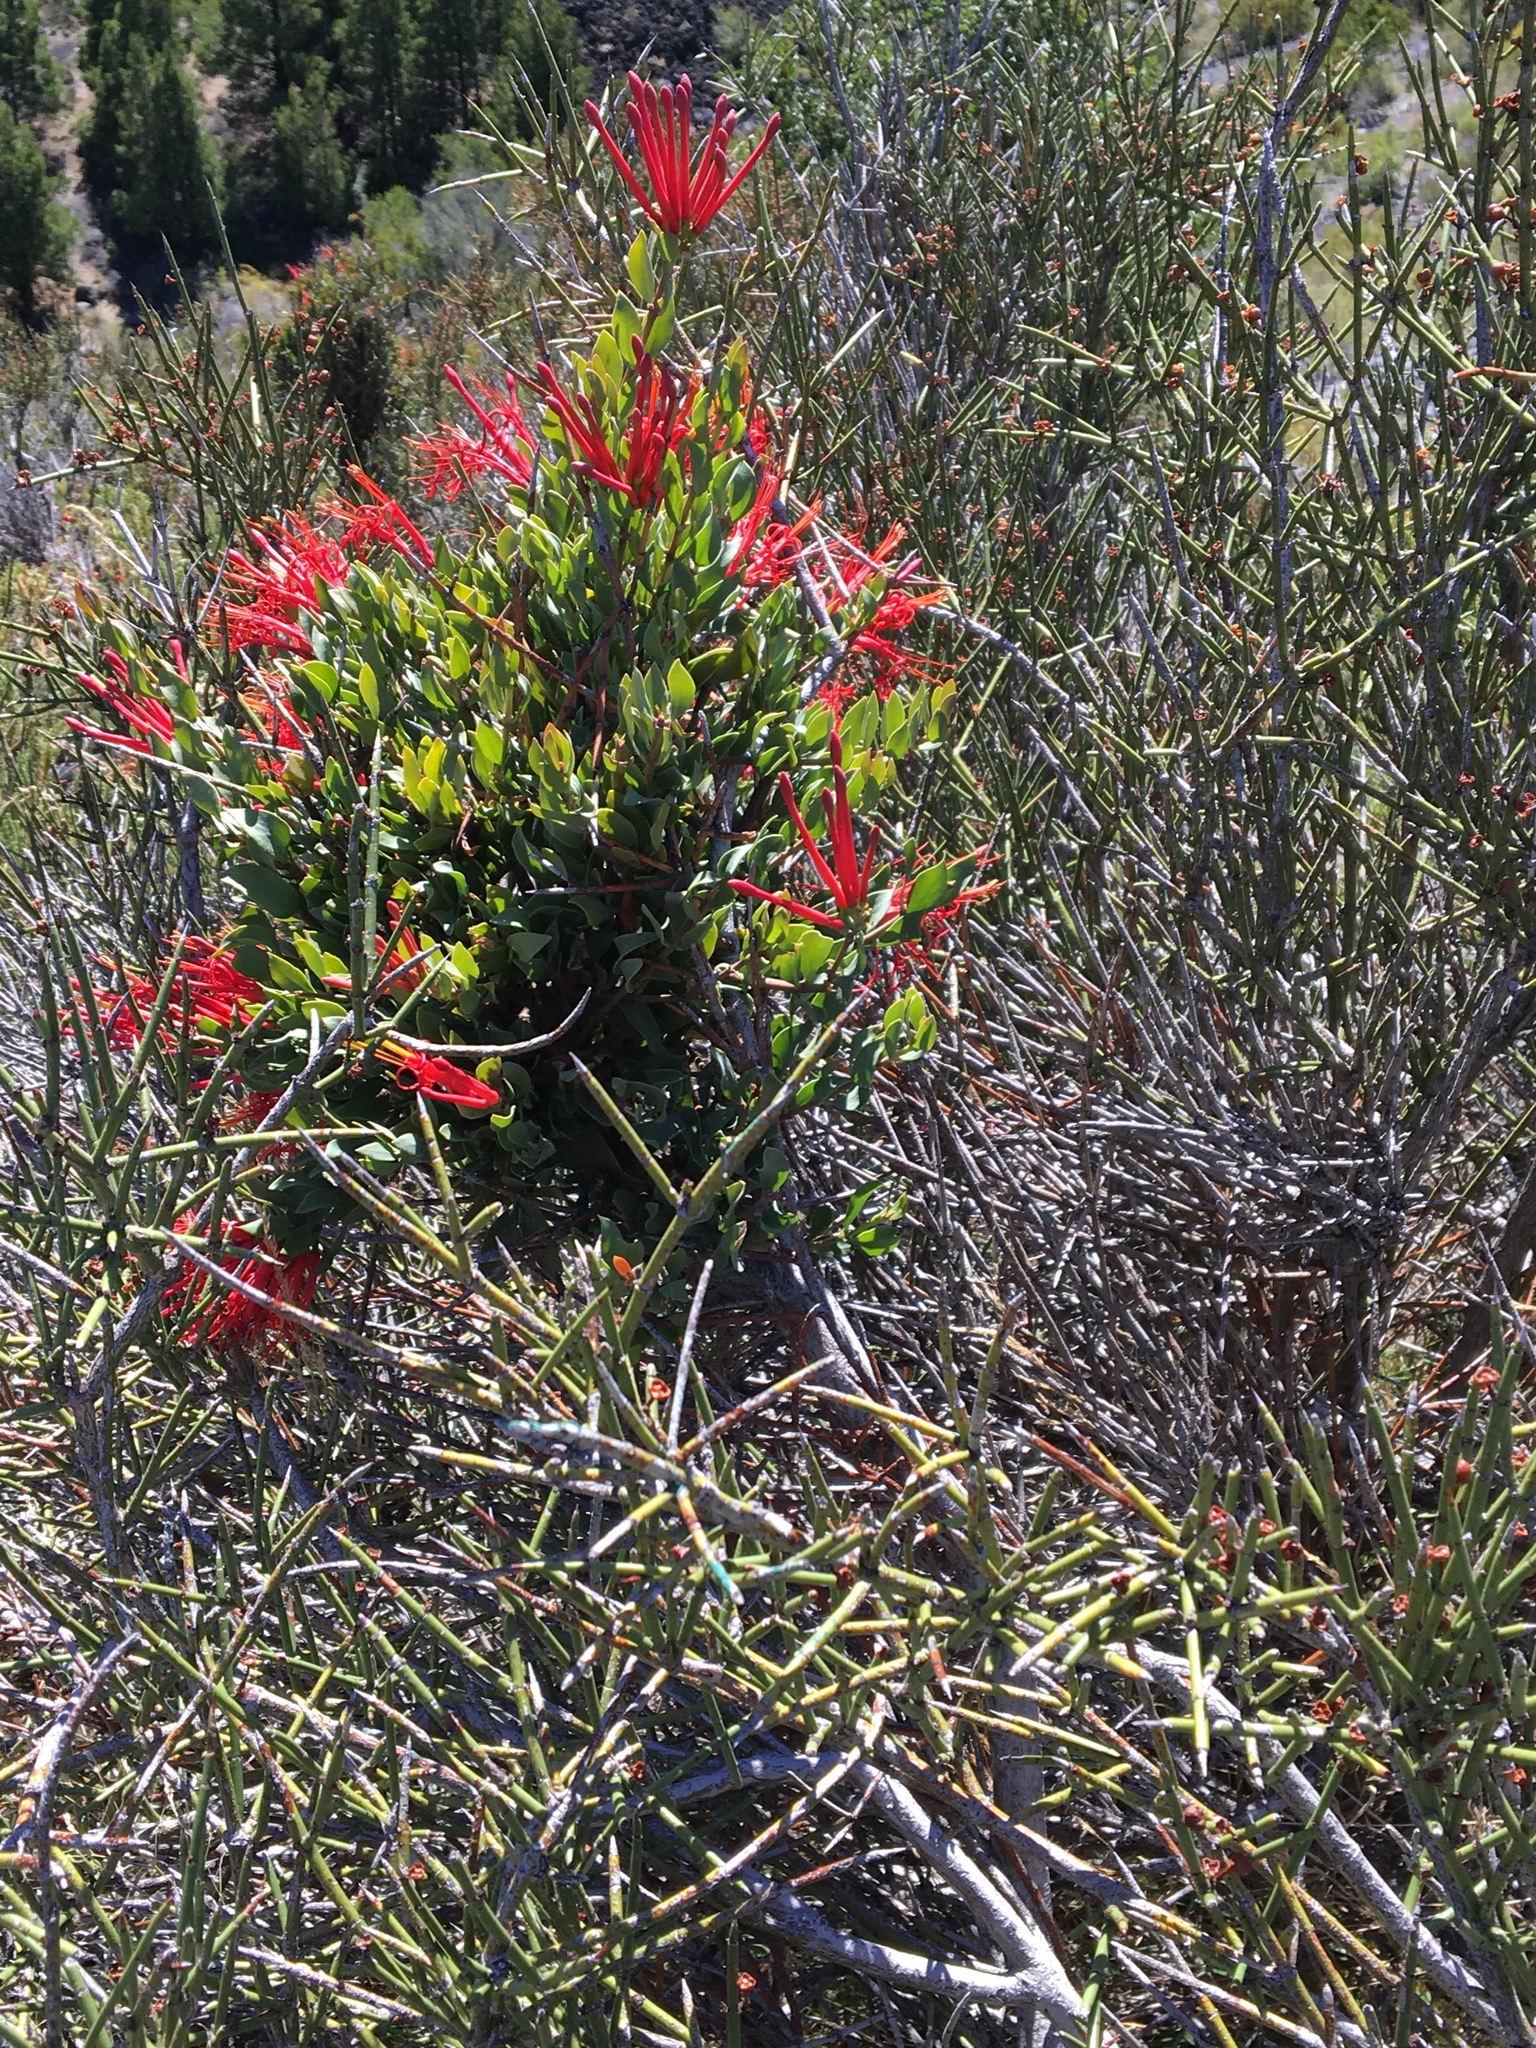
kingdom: Plantae
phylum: Tracheophyta
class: Magnoliopsida
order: Santalales
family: Loranthaceae
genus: Tristerix
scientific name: Tristerix verticillatus
